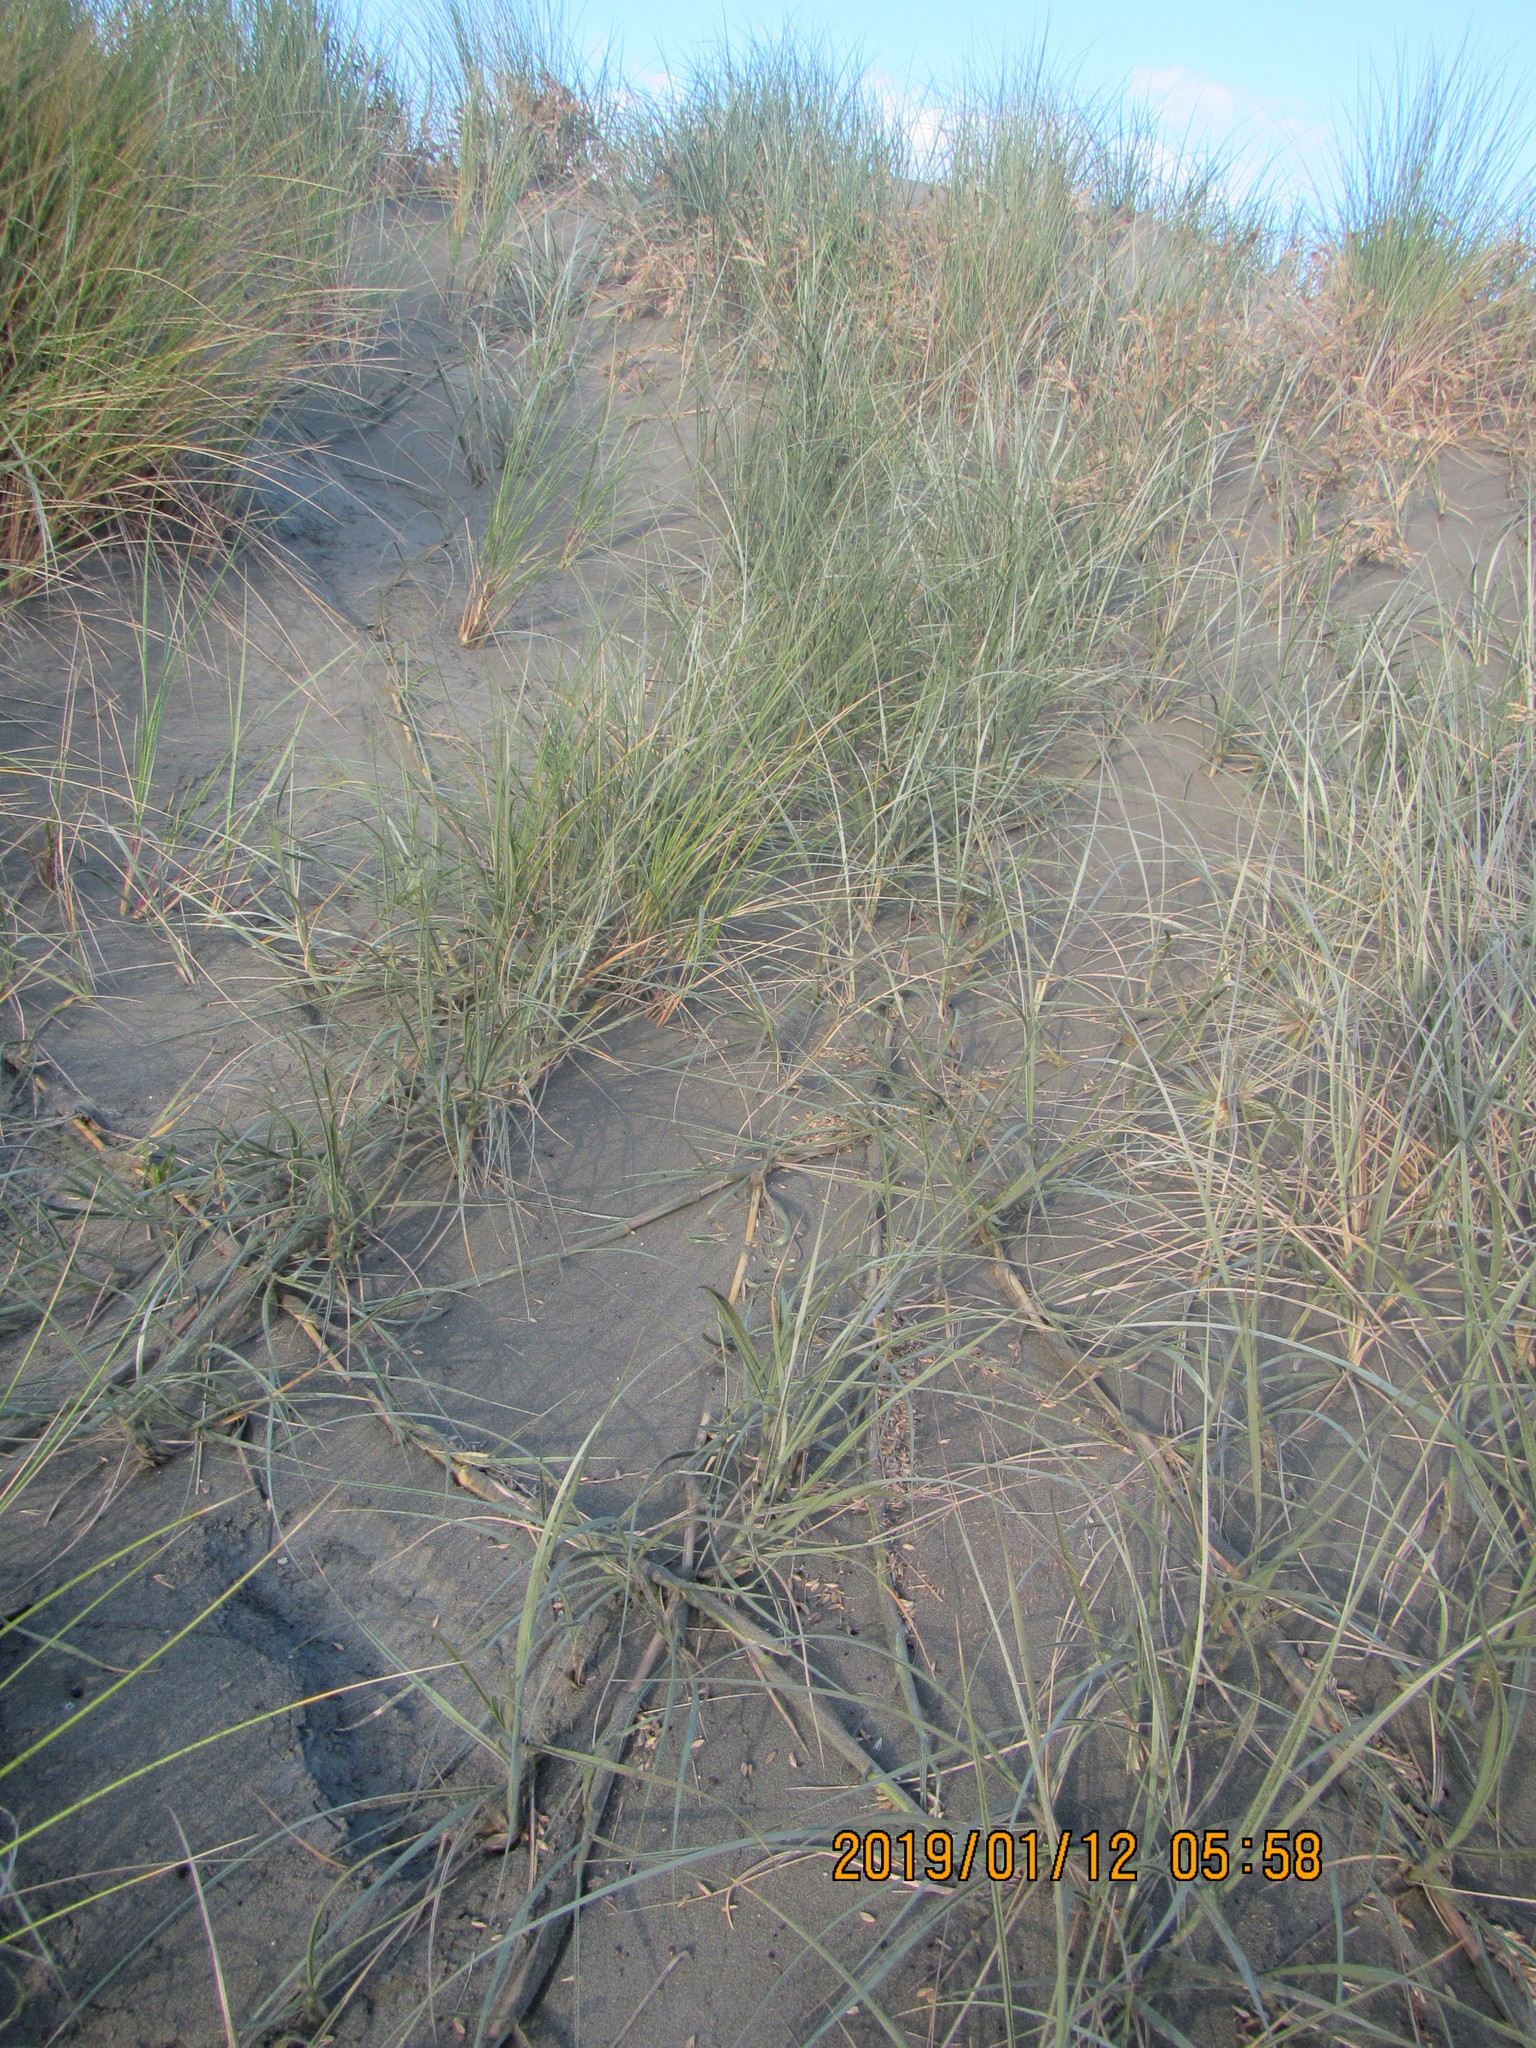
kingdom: Plantae
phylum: Tracheophyta
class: Liliopsida
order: Poales
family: Poaceae
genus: Spinifex
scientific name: Spinifex sericeus
